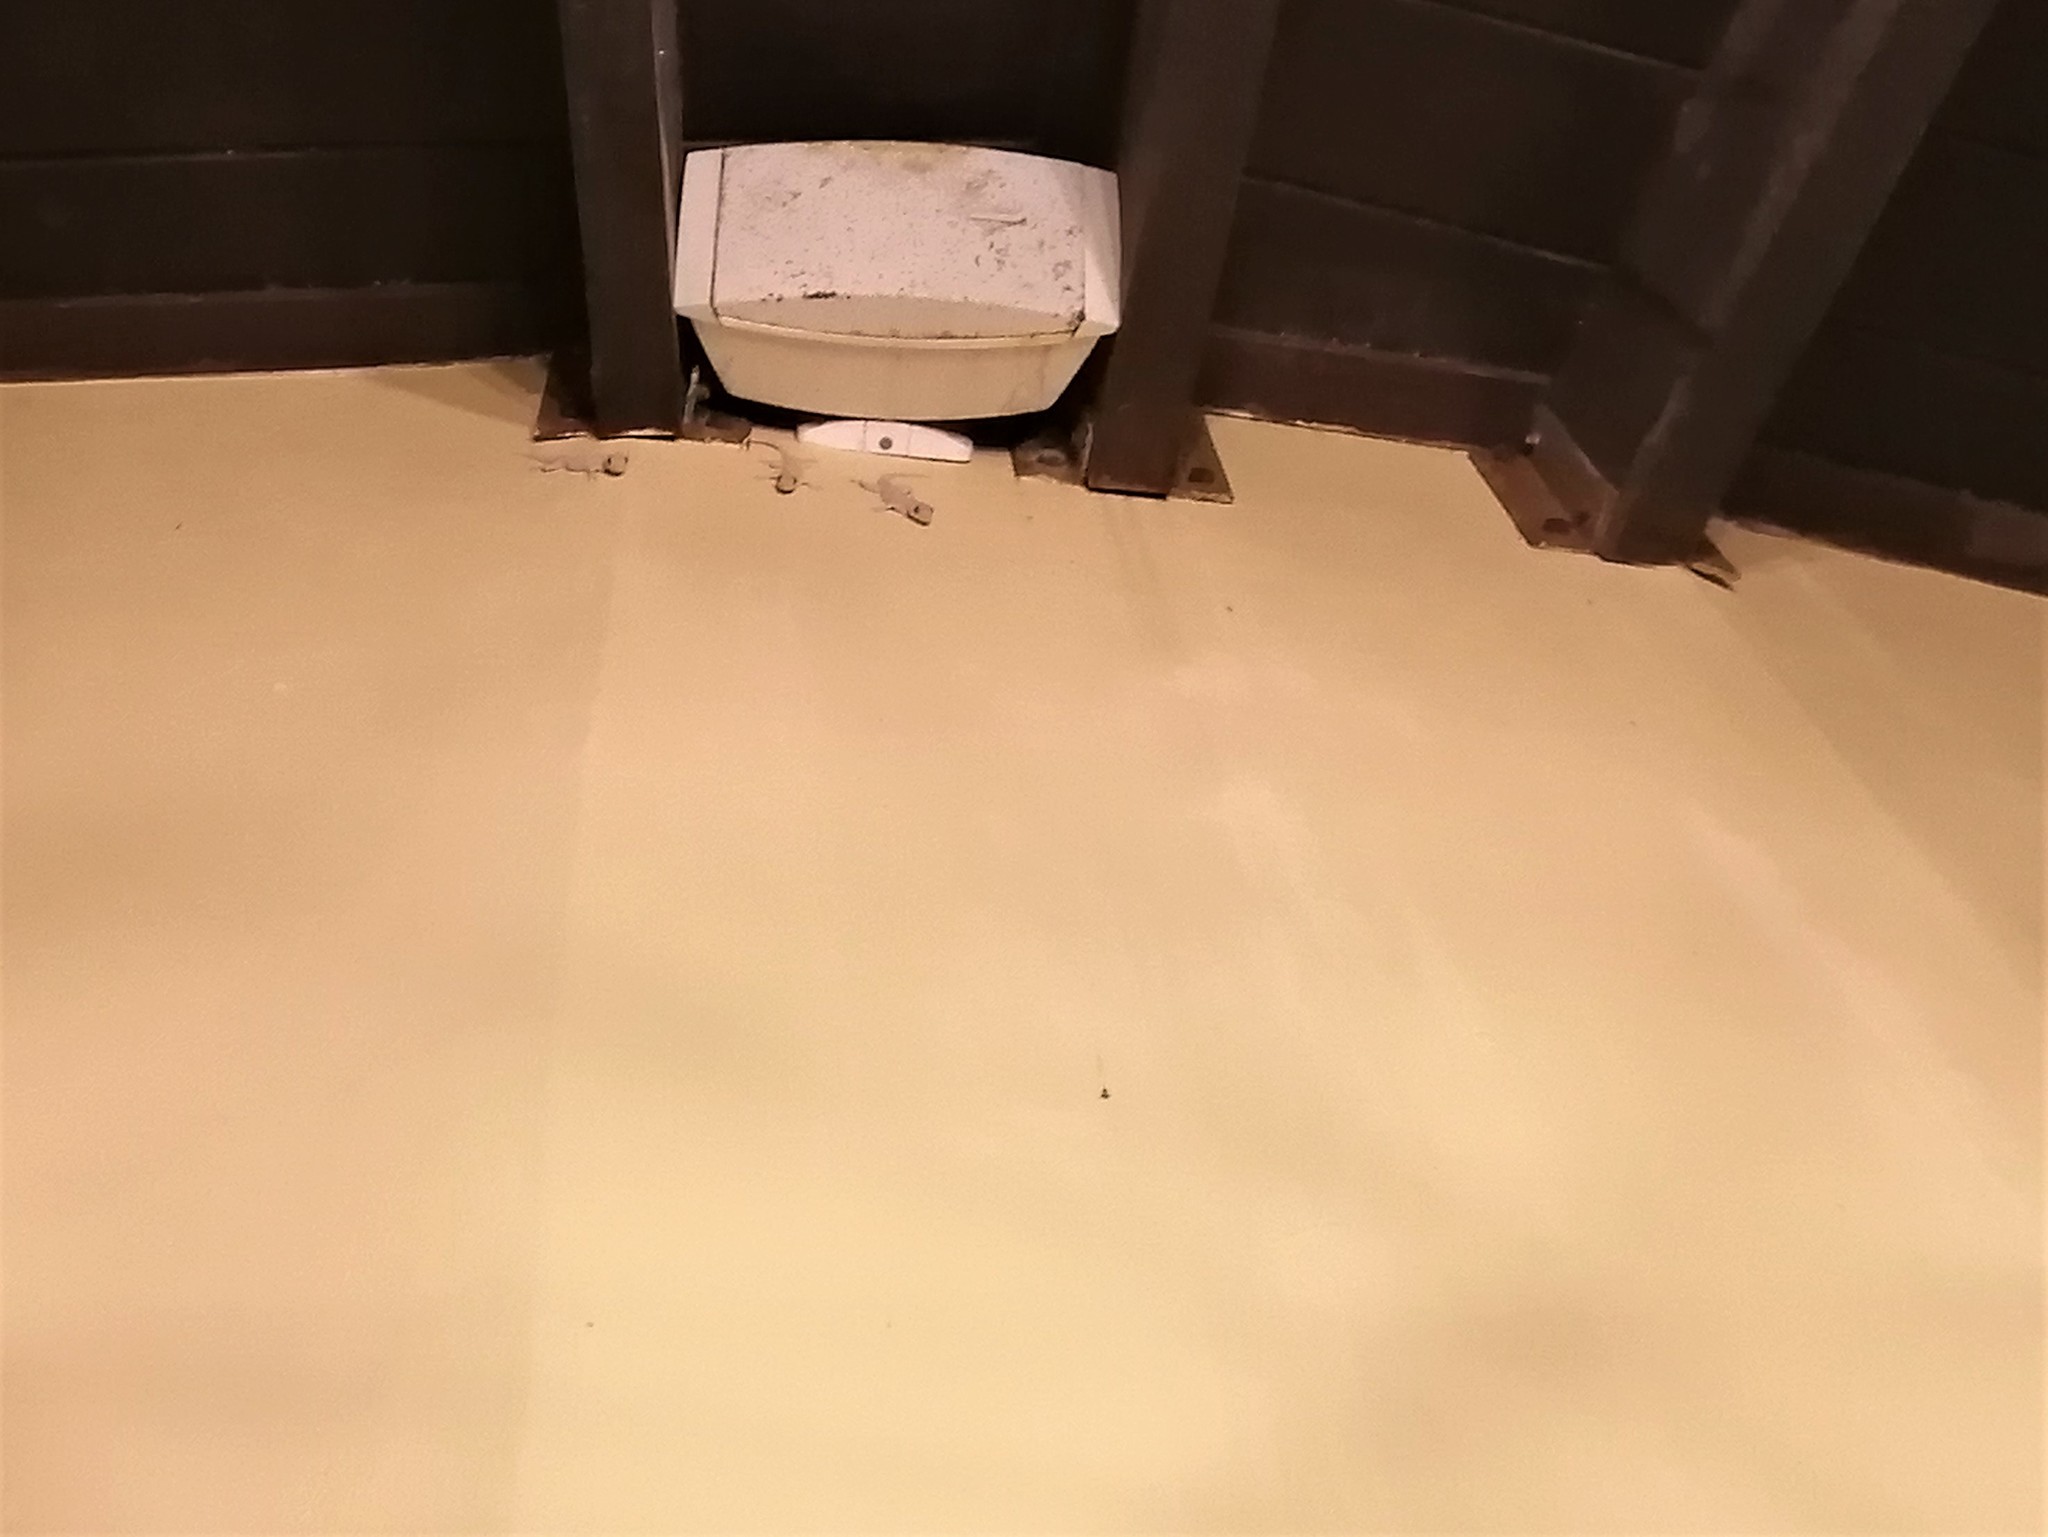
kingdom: Animalia
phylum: Chordata
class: Squamata
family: Gekkonidae
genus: Hemidactylus
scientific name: Hemidactylus mabouia
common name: House gecko
